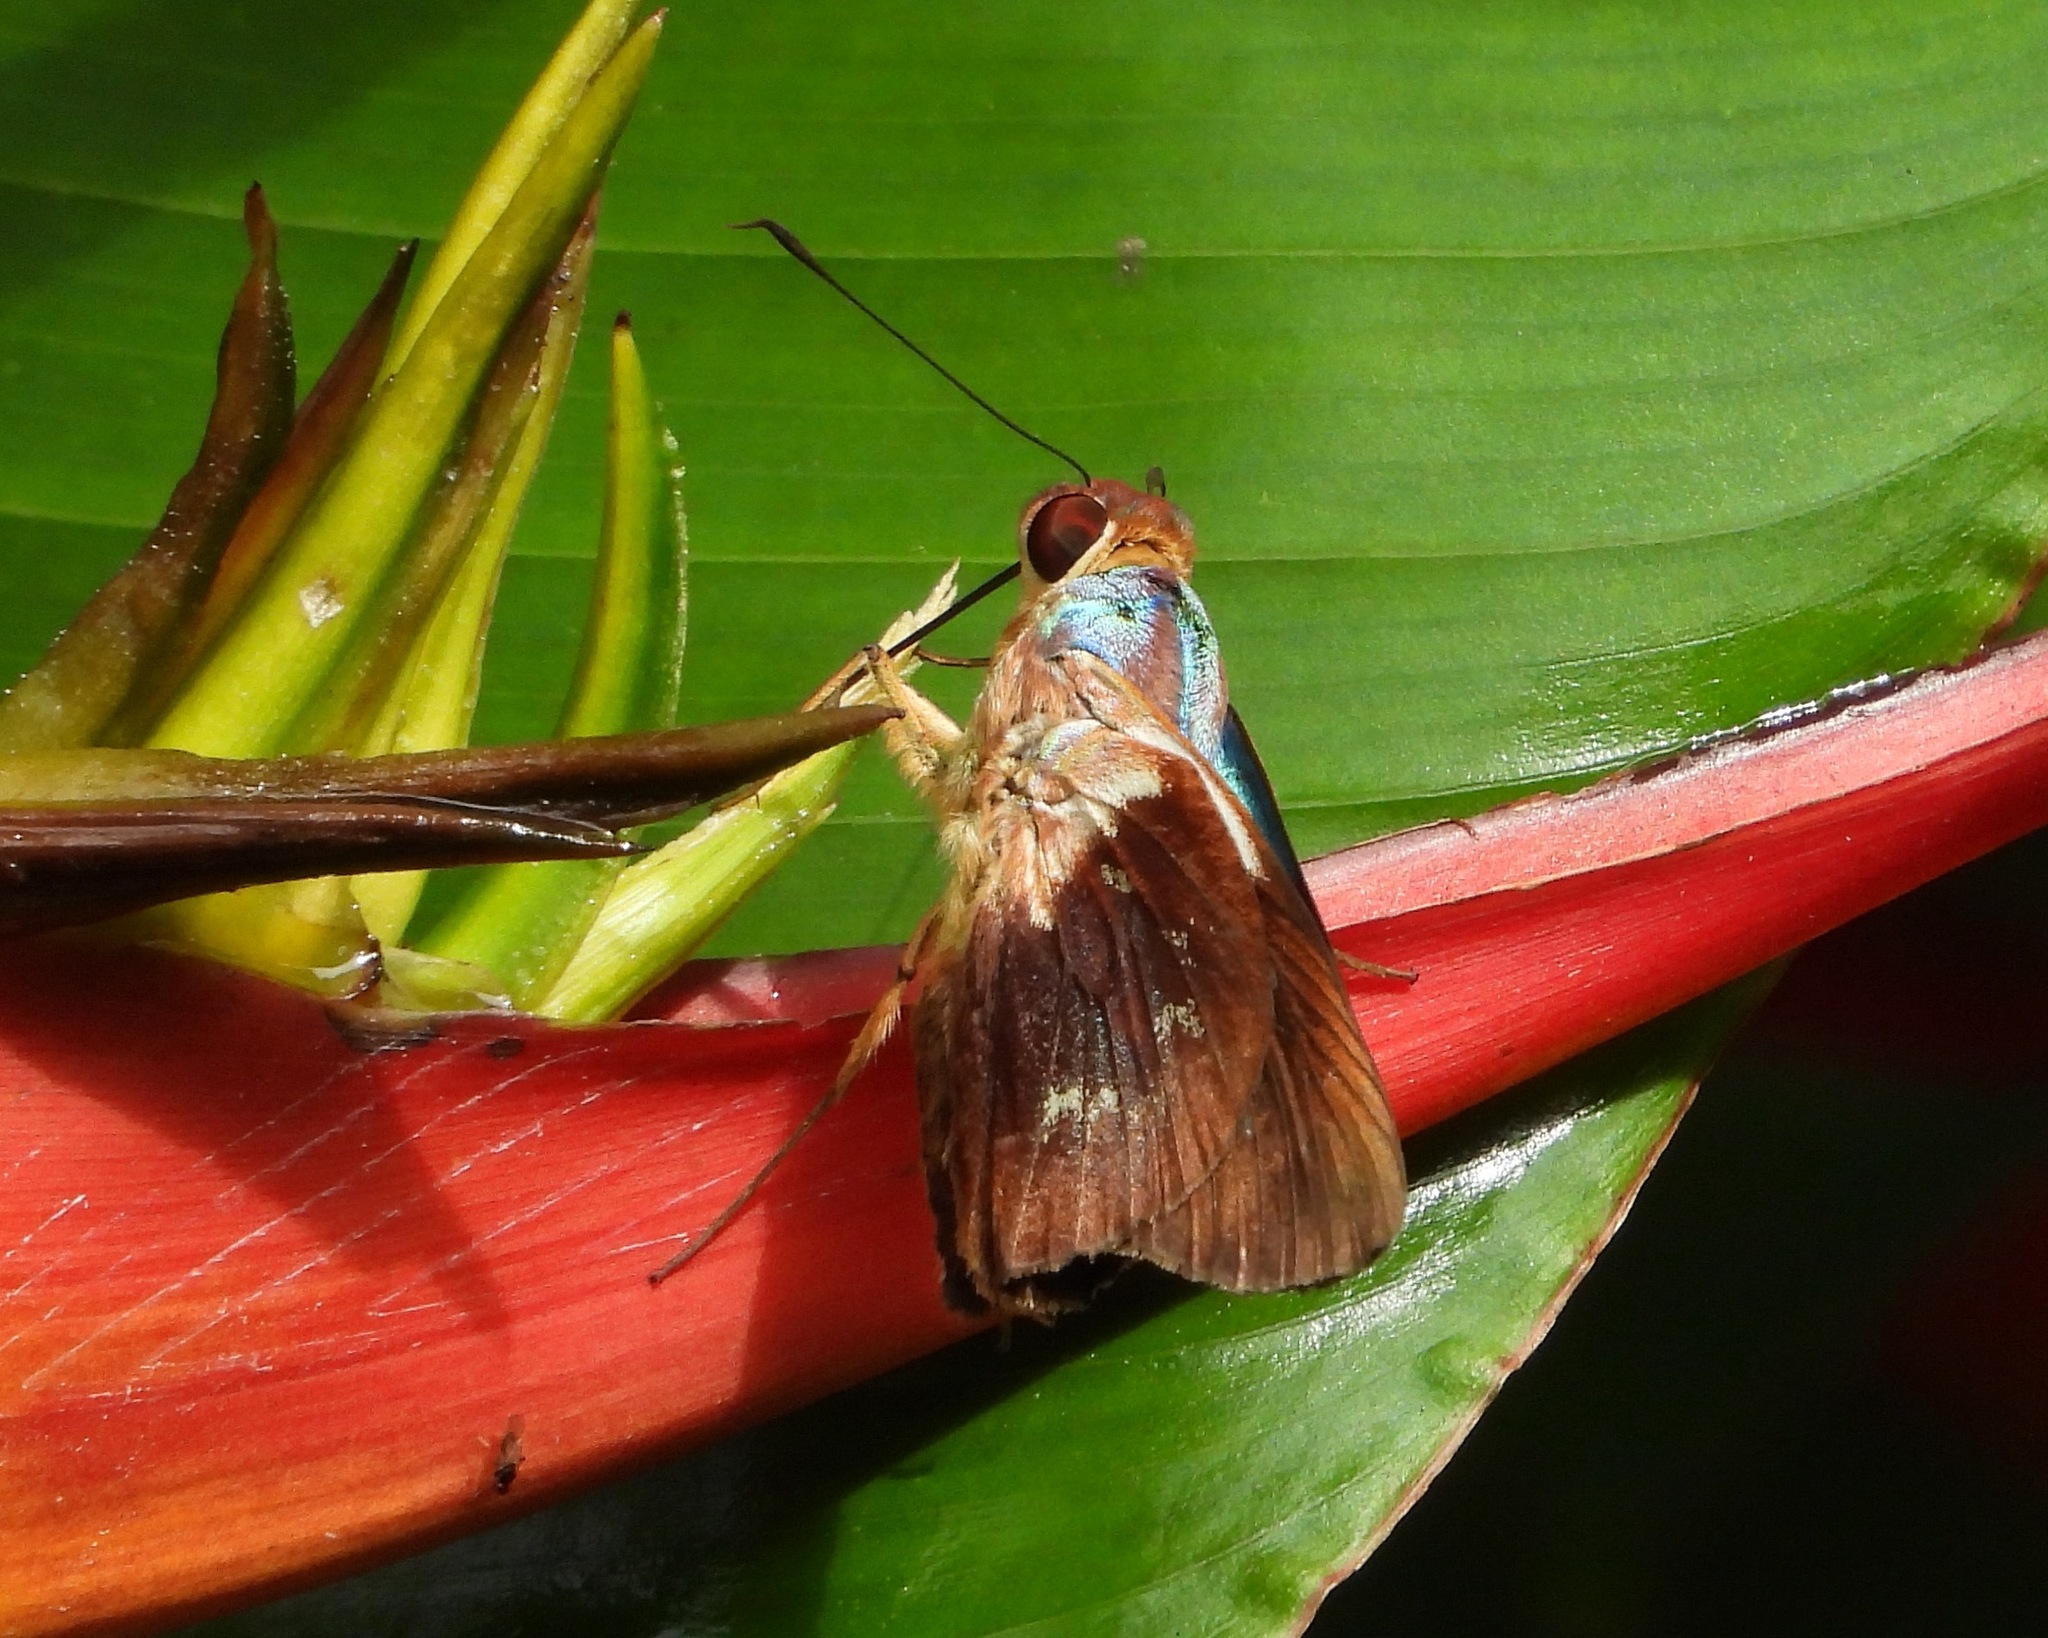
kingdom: Animalia
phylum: Arthropoda
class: Insecta
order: Lepidoptera
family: Hesperiidae
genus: Thracides
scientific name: Thracides phidon
